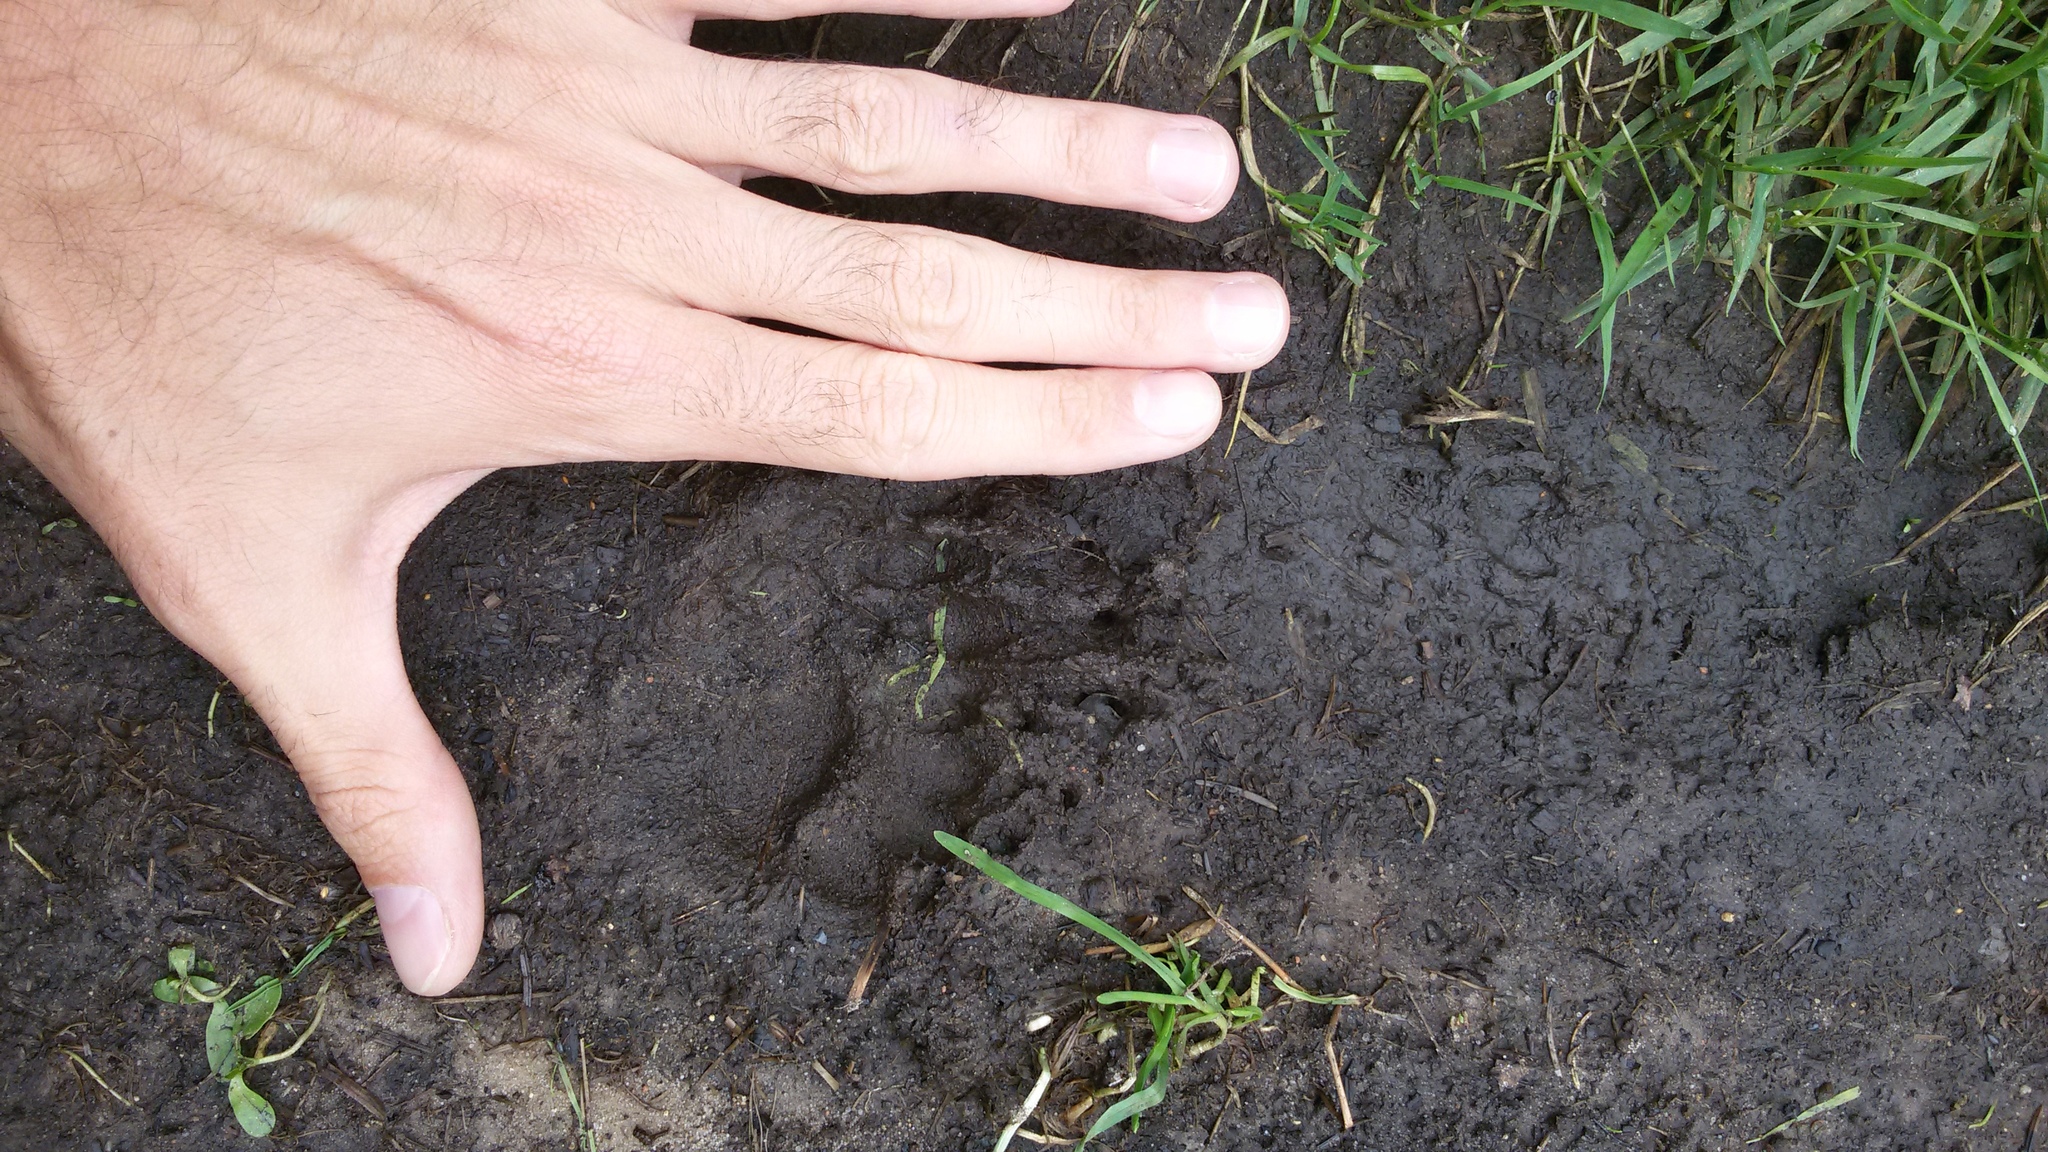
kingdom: Animalia
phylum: Chordata
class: Mammalia
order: Carnivora
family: Mustelidae
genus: Meles
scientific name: Meles meles
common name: Eurasian badger
